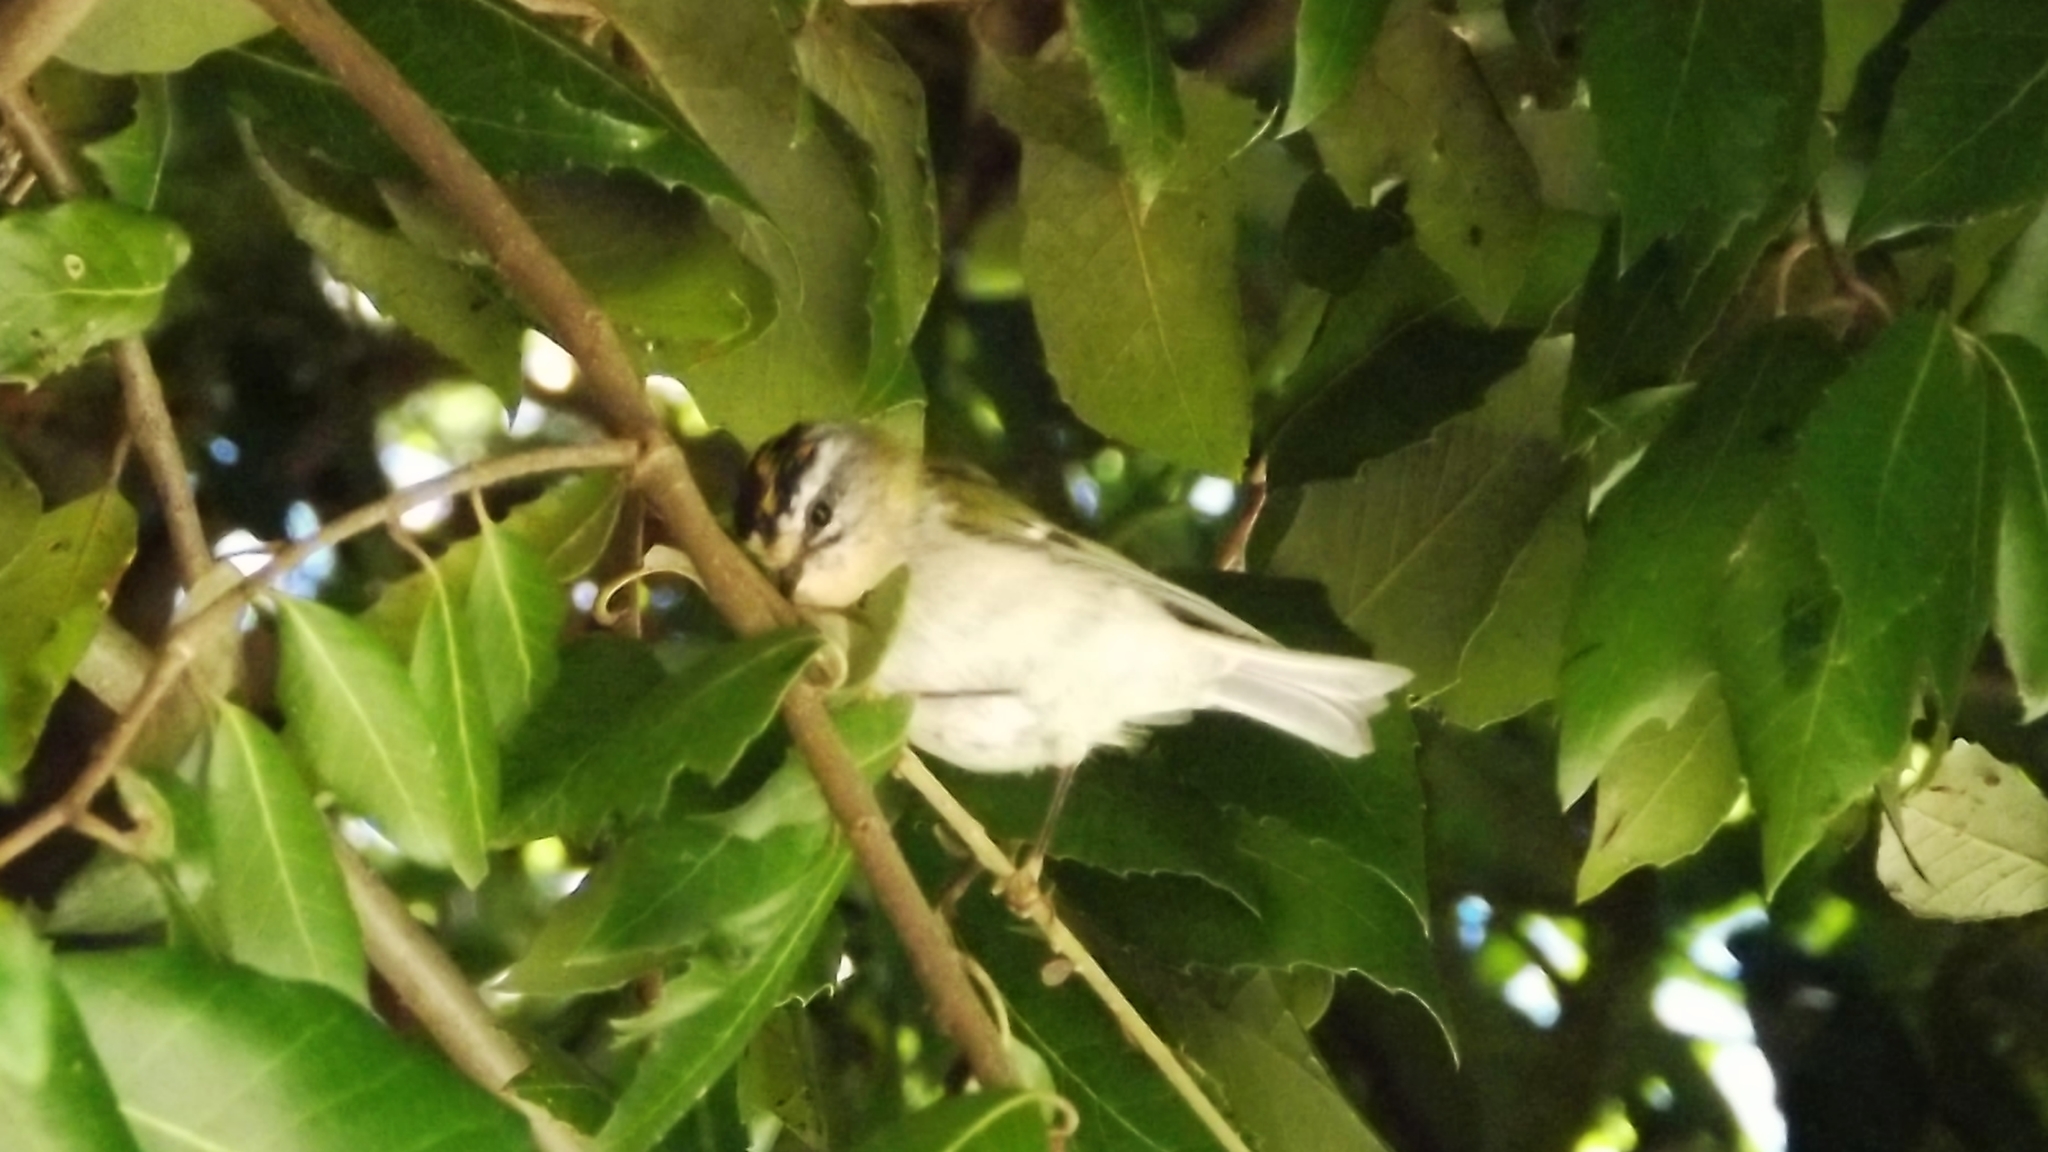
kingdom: Animalia
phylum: Chordata
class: Aves
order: Passeriformes
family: Regulidae
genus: Regulus
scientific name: Regulus ignicapilla
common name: Firecrest
